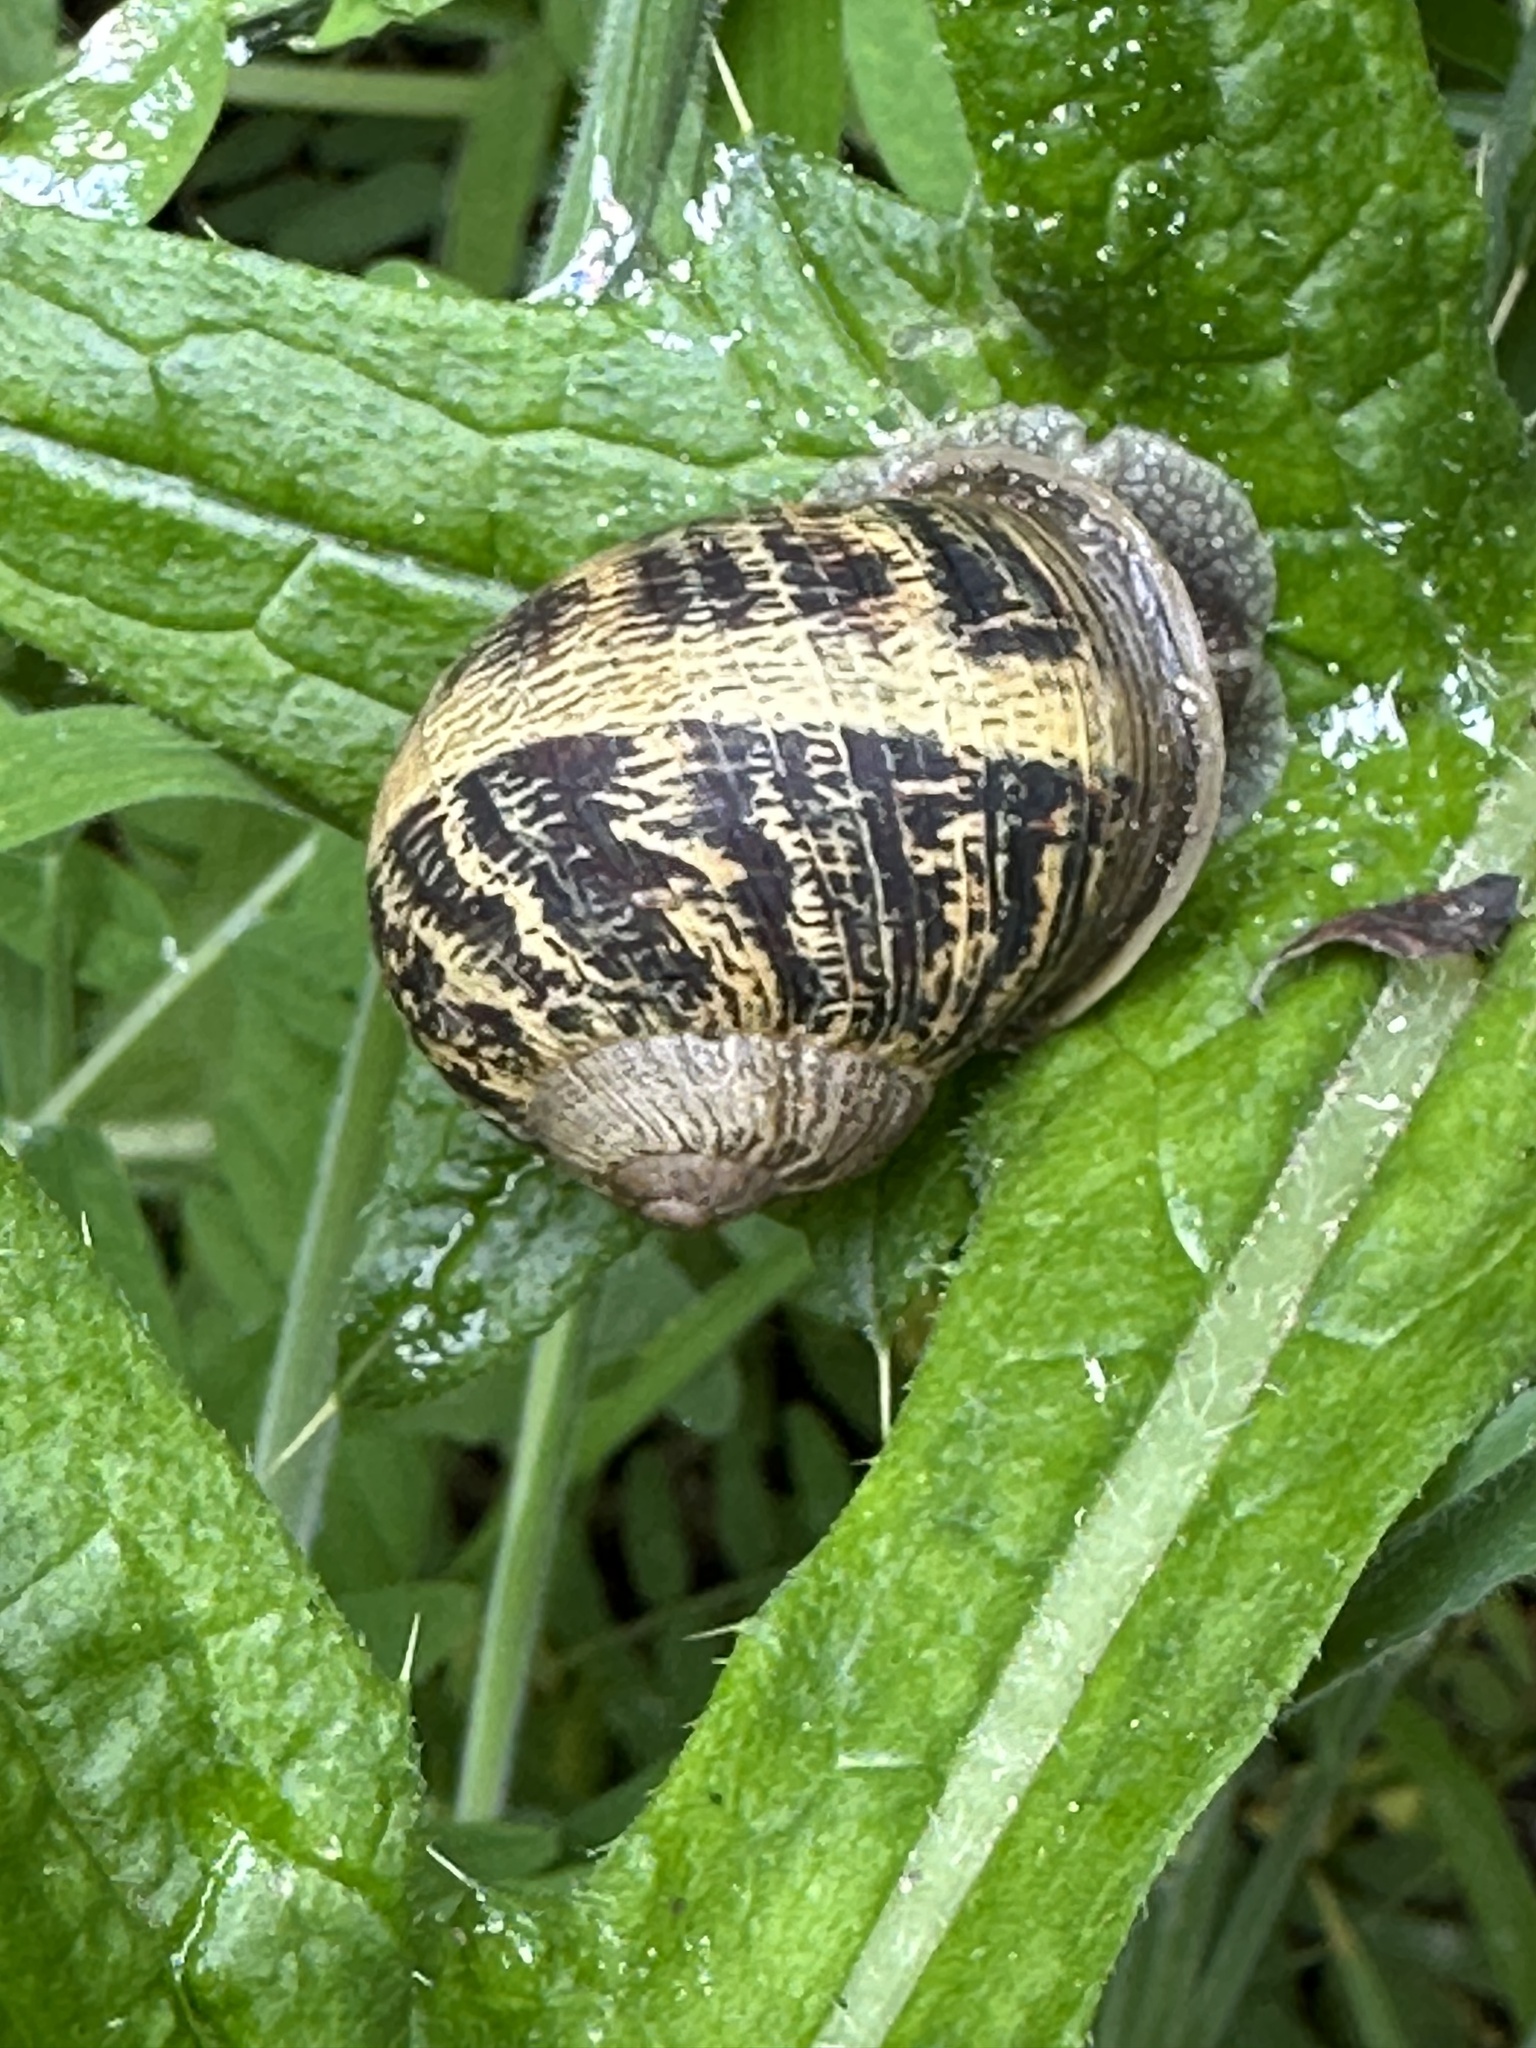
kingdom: Animalia
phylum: Mollusca
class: Gastropoda
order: Stylommatophora
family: Helicidae
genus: Cornu
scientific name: Cornu aspersum
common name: Brown garden snail
